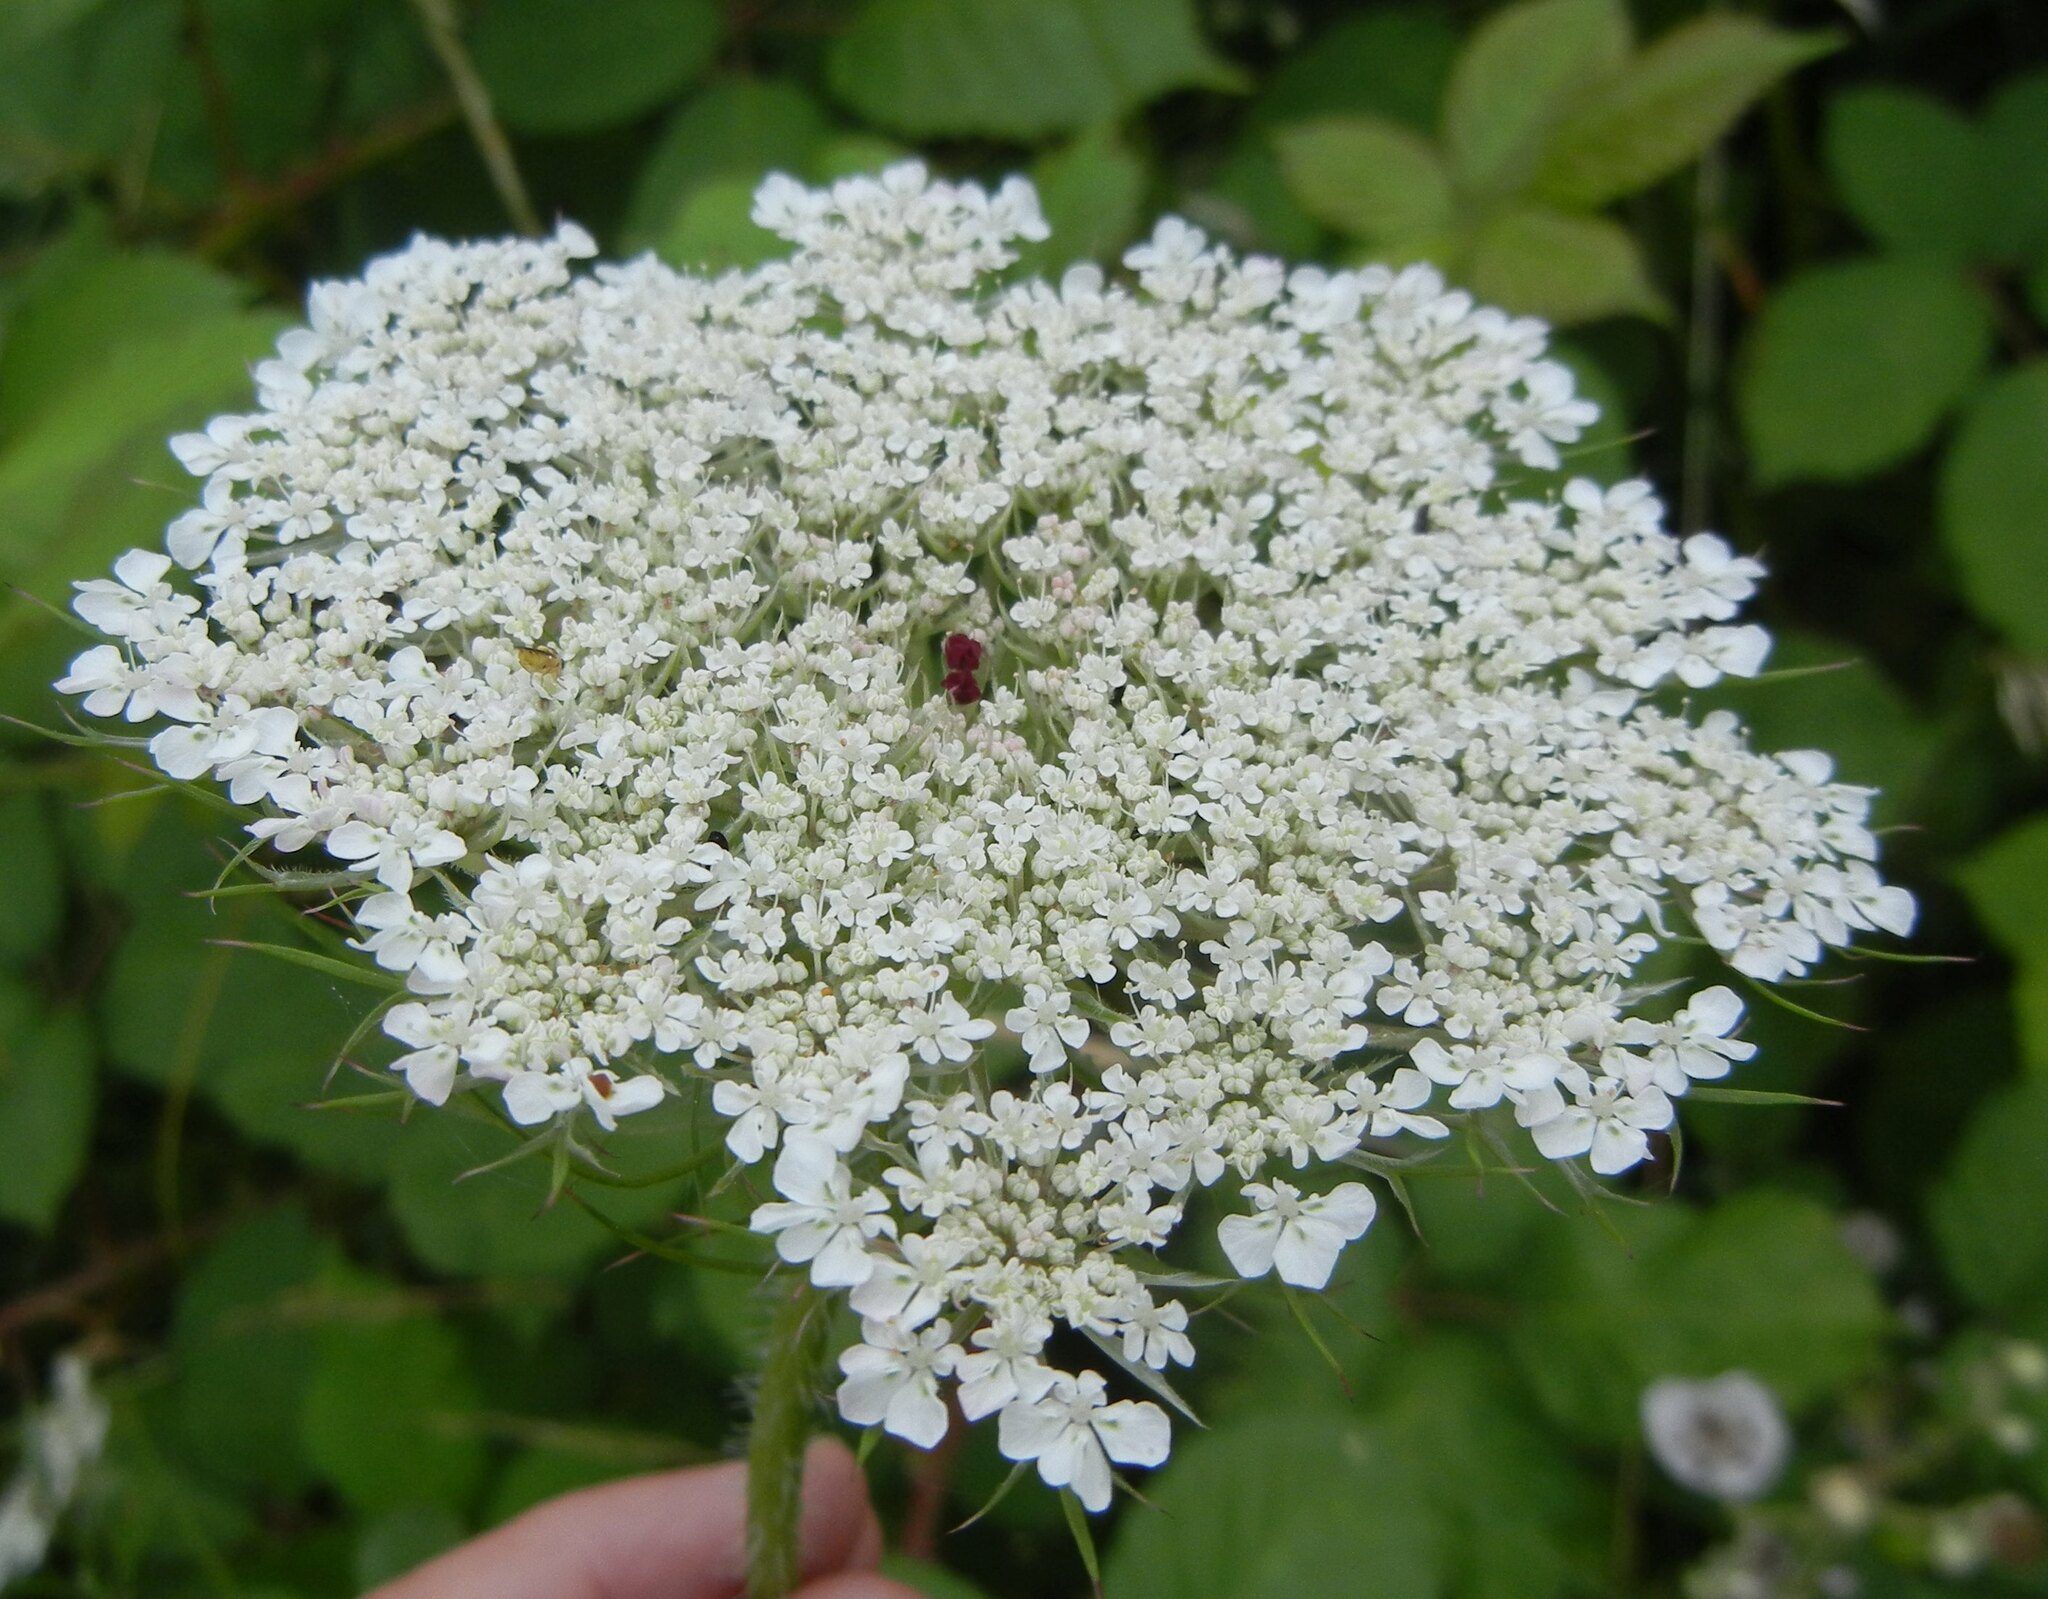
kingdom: Plantae
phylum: Tracheophyta
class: Magnoliopsida
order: Apiales
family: Apiaceae
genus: Daucus
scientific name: Daucus carota
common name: Wild carrot
